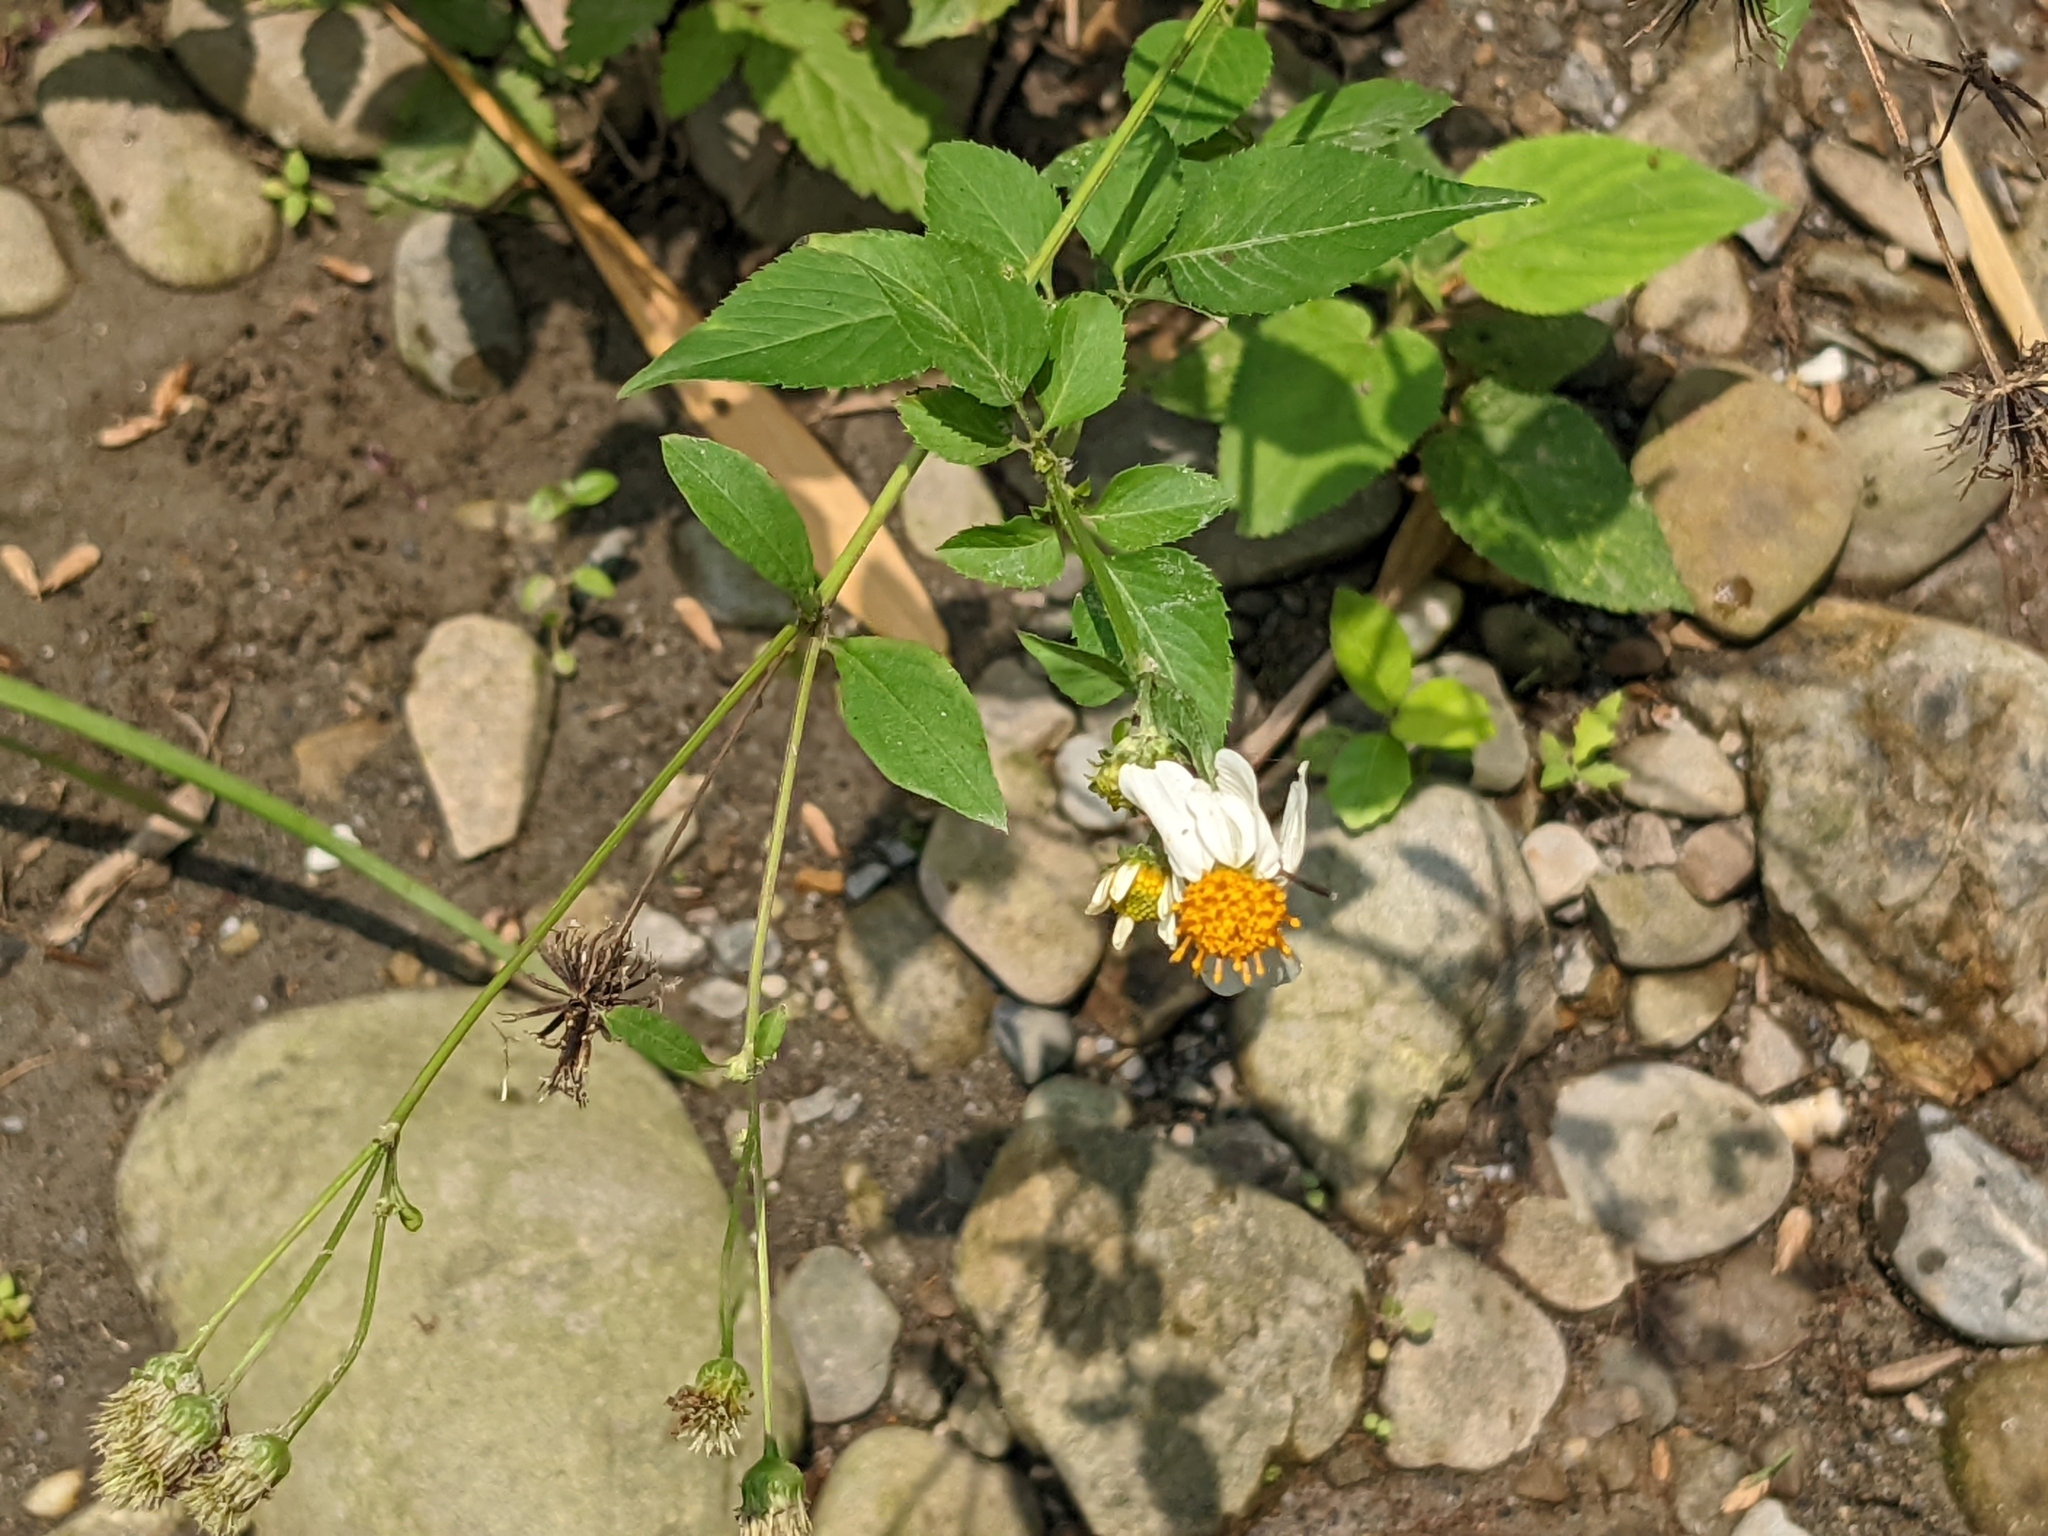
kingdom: Plantae
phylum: Tracheophyta
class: Magnoliopsida
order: Asterales
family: Asteraceae
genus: Bidens
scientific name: Bidens alba
